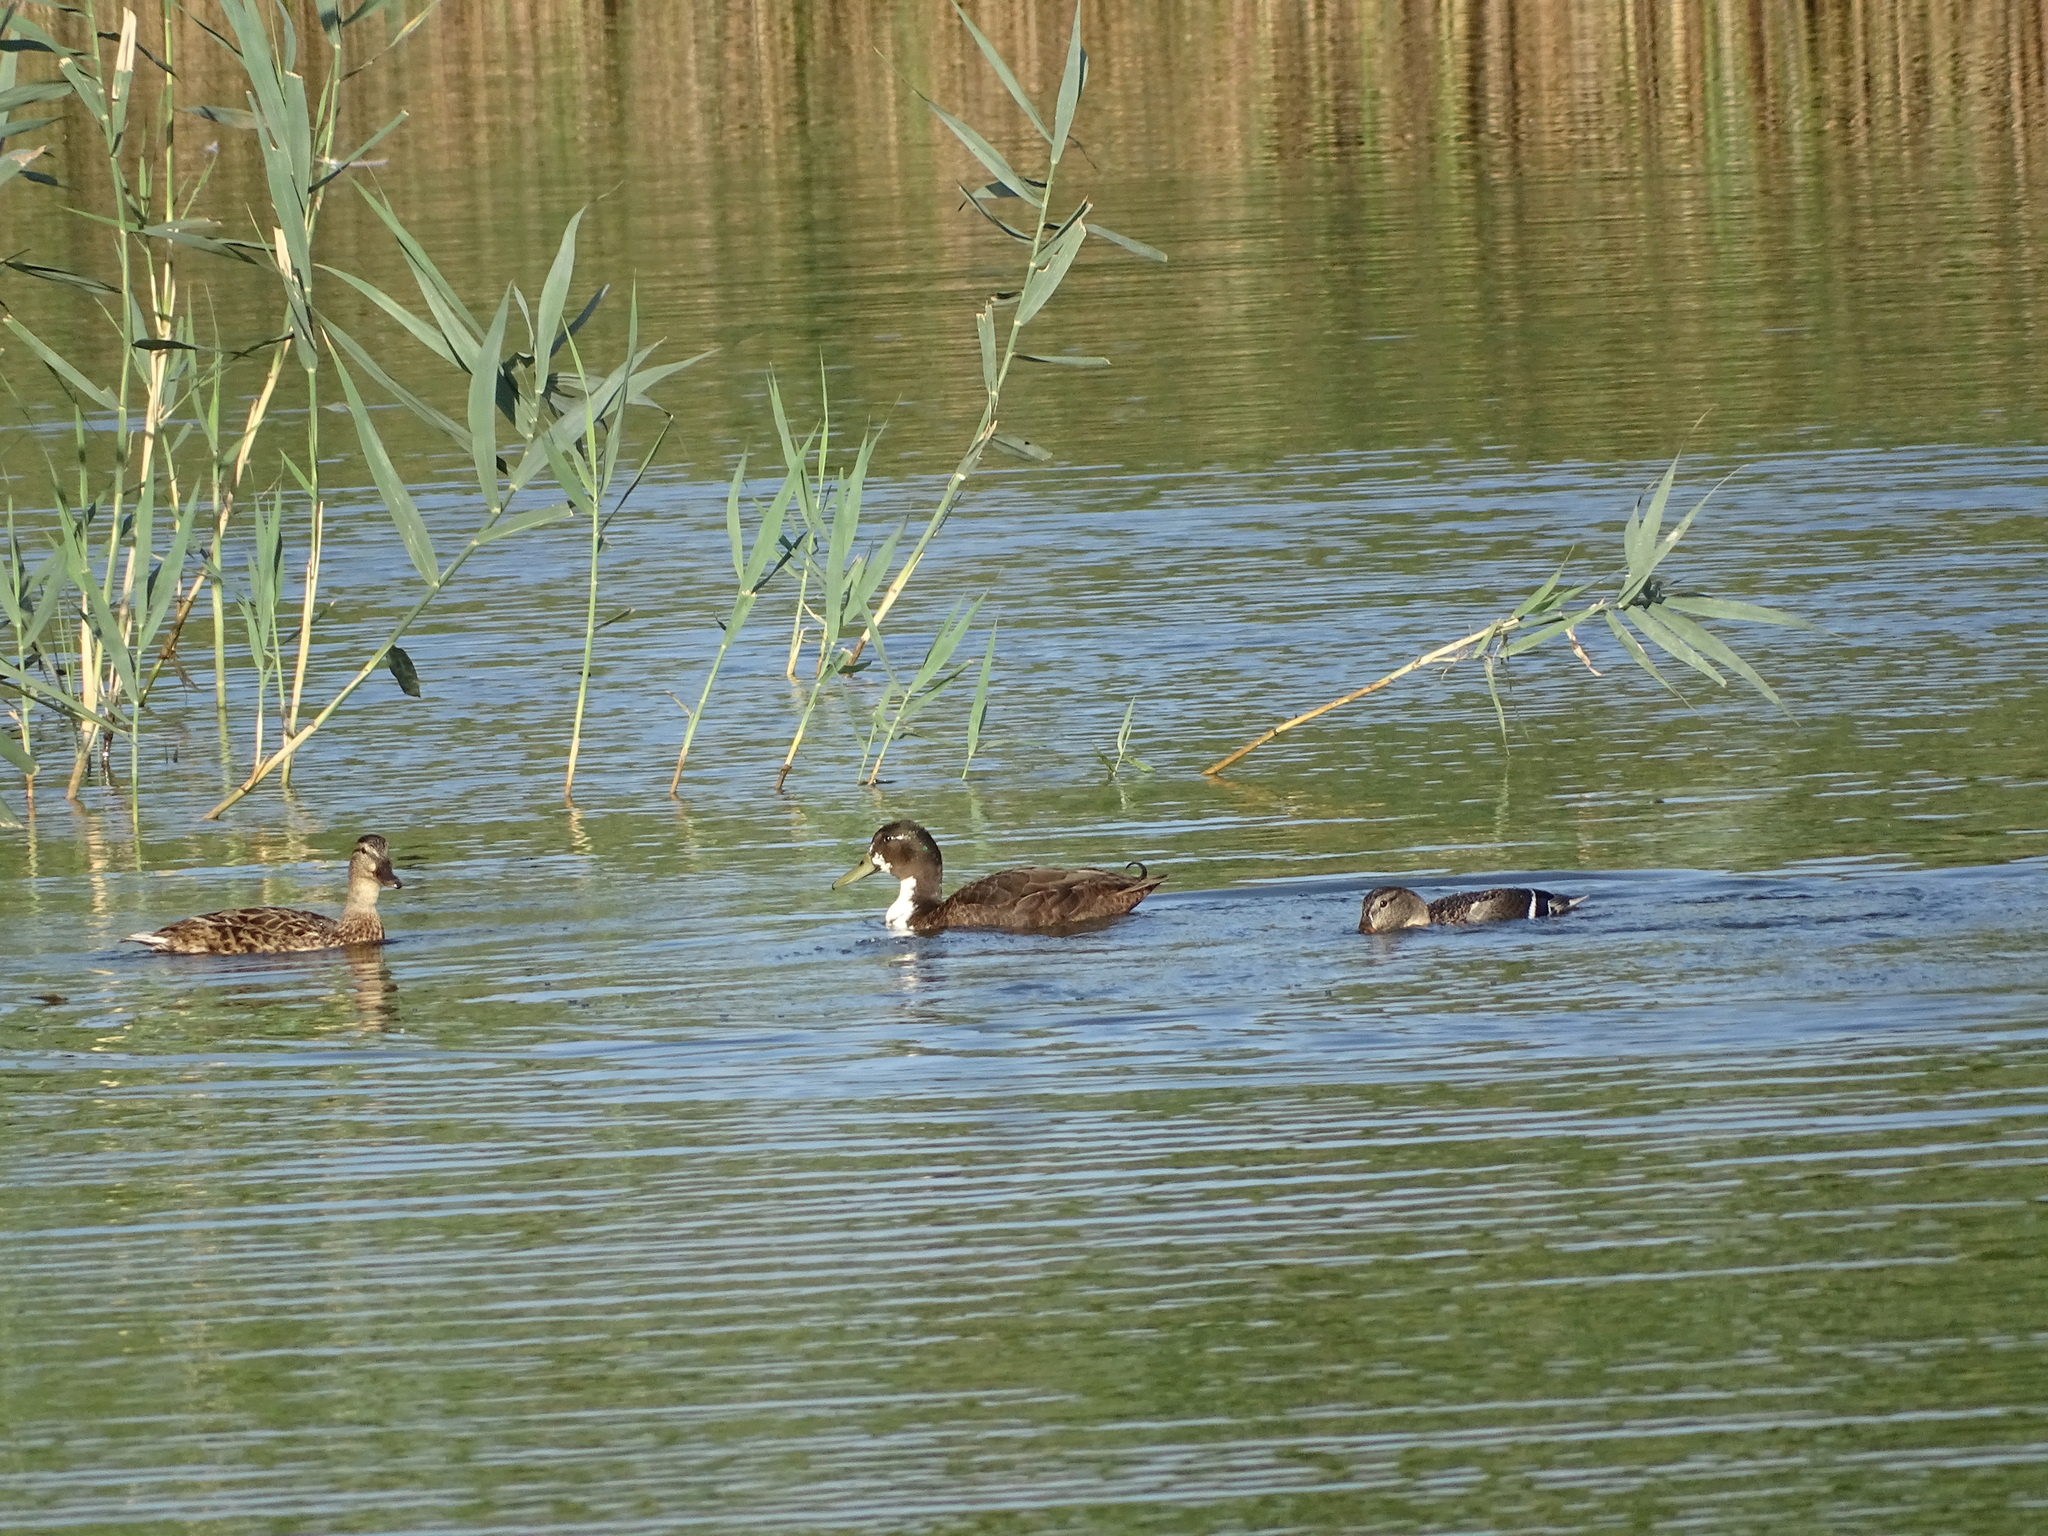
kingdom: Animalia
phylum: Chordata
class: Aves
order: Anseriformes
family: Anatidae
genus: Anas
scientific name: Anas platyrhynchos
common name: Mallard
